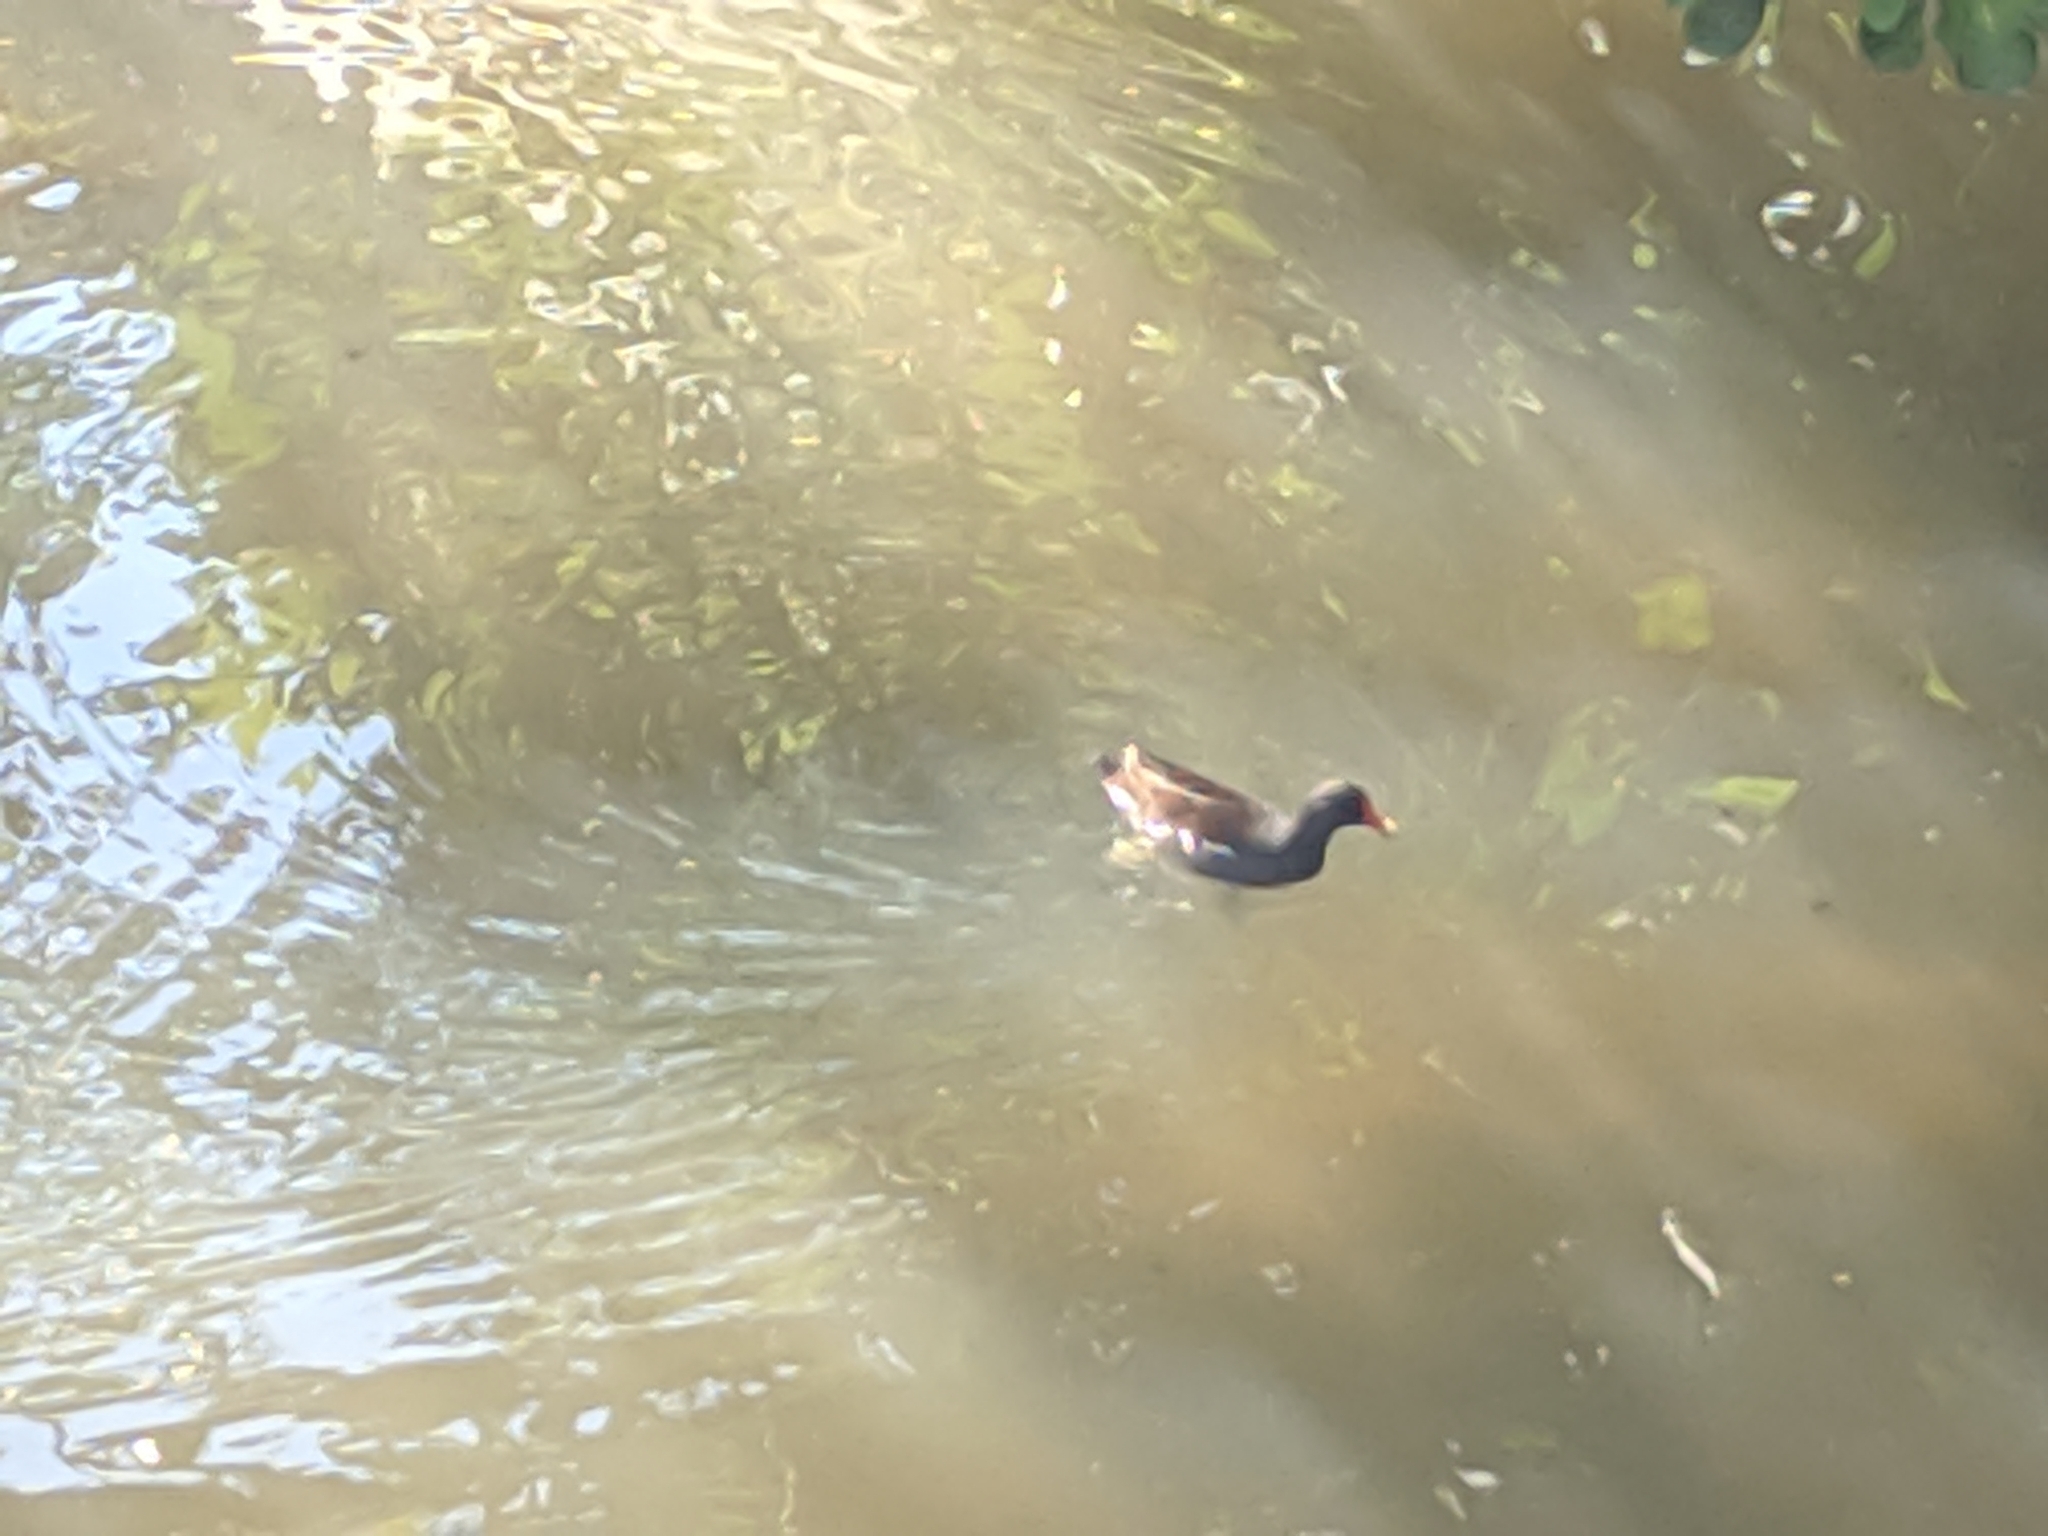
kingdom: Animalia
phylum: Chordata
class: Aves
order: Gruiformes
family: Rallidae
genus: Gallinula
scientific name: Gallinula chloropus
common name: Common moorhen
